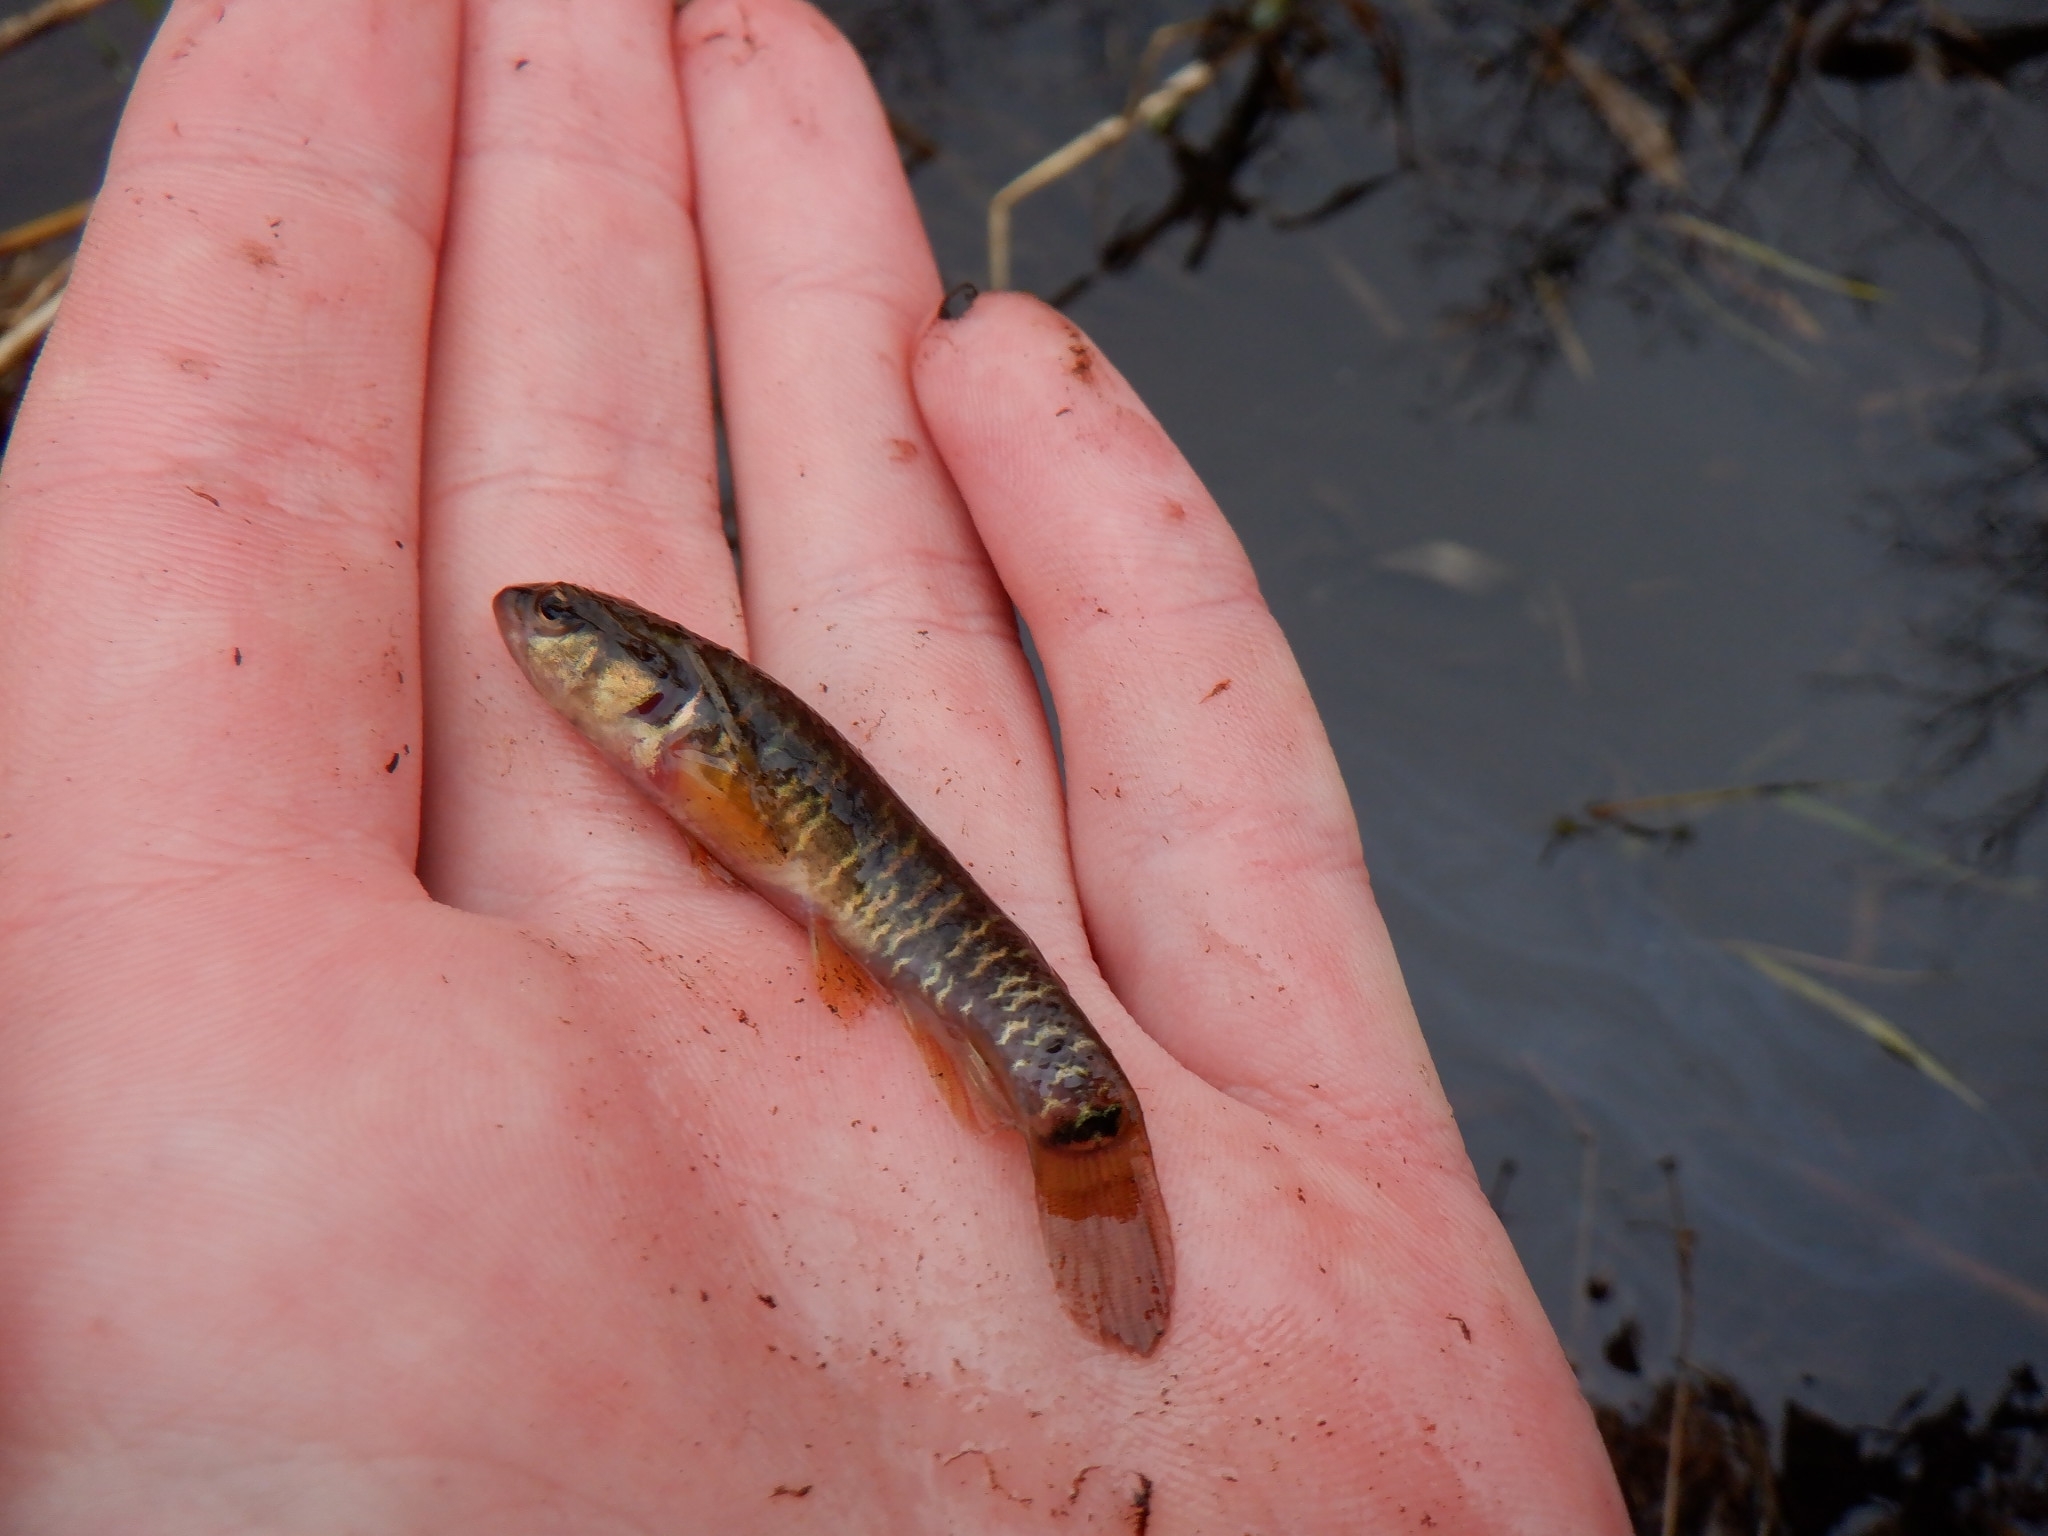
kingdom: Animalia
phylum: Chordata
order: Esociformes
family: Umbridae
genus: Umbra
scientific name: Umbra limi
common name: Central mudminnow
